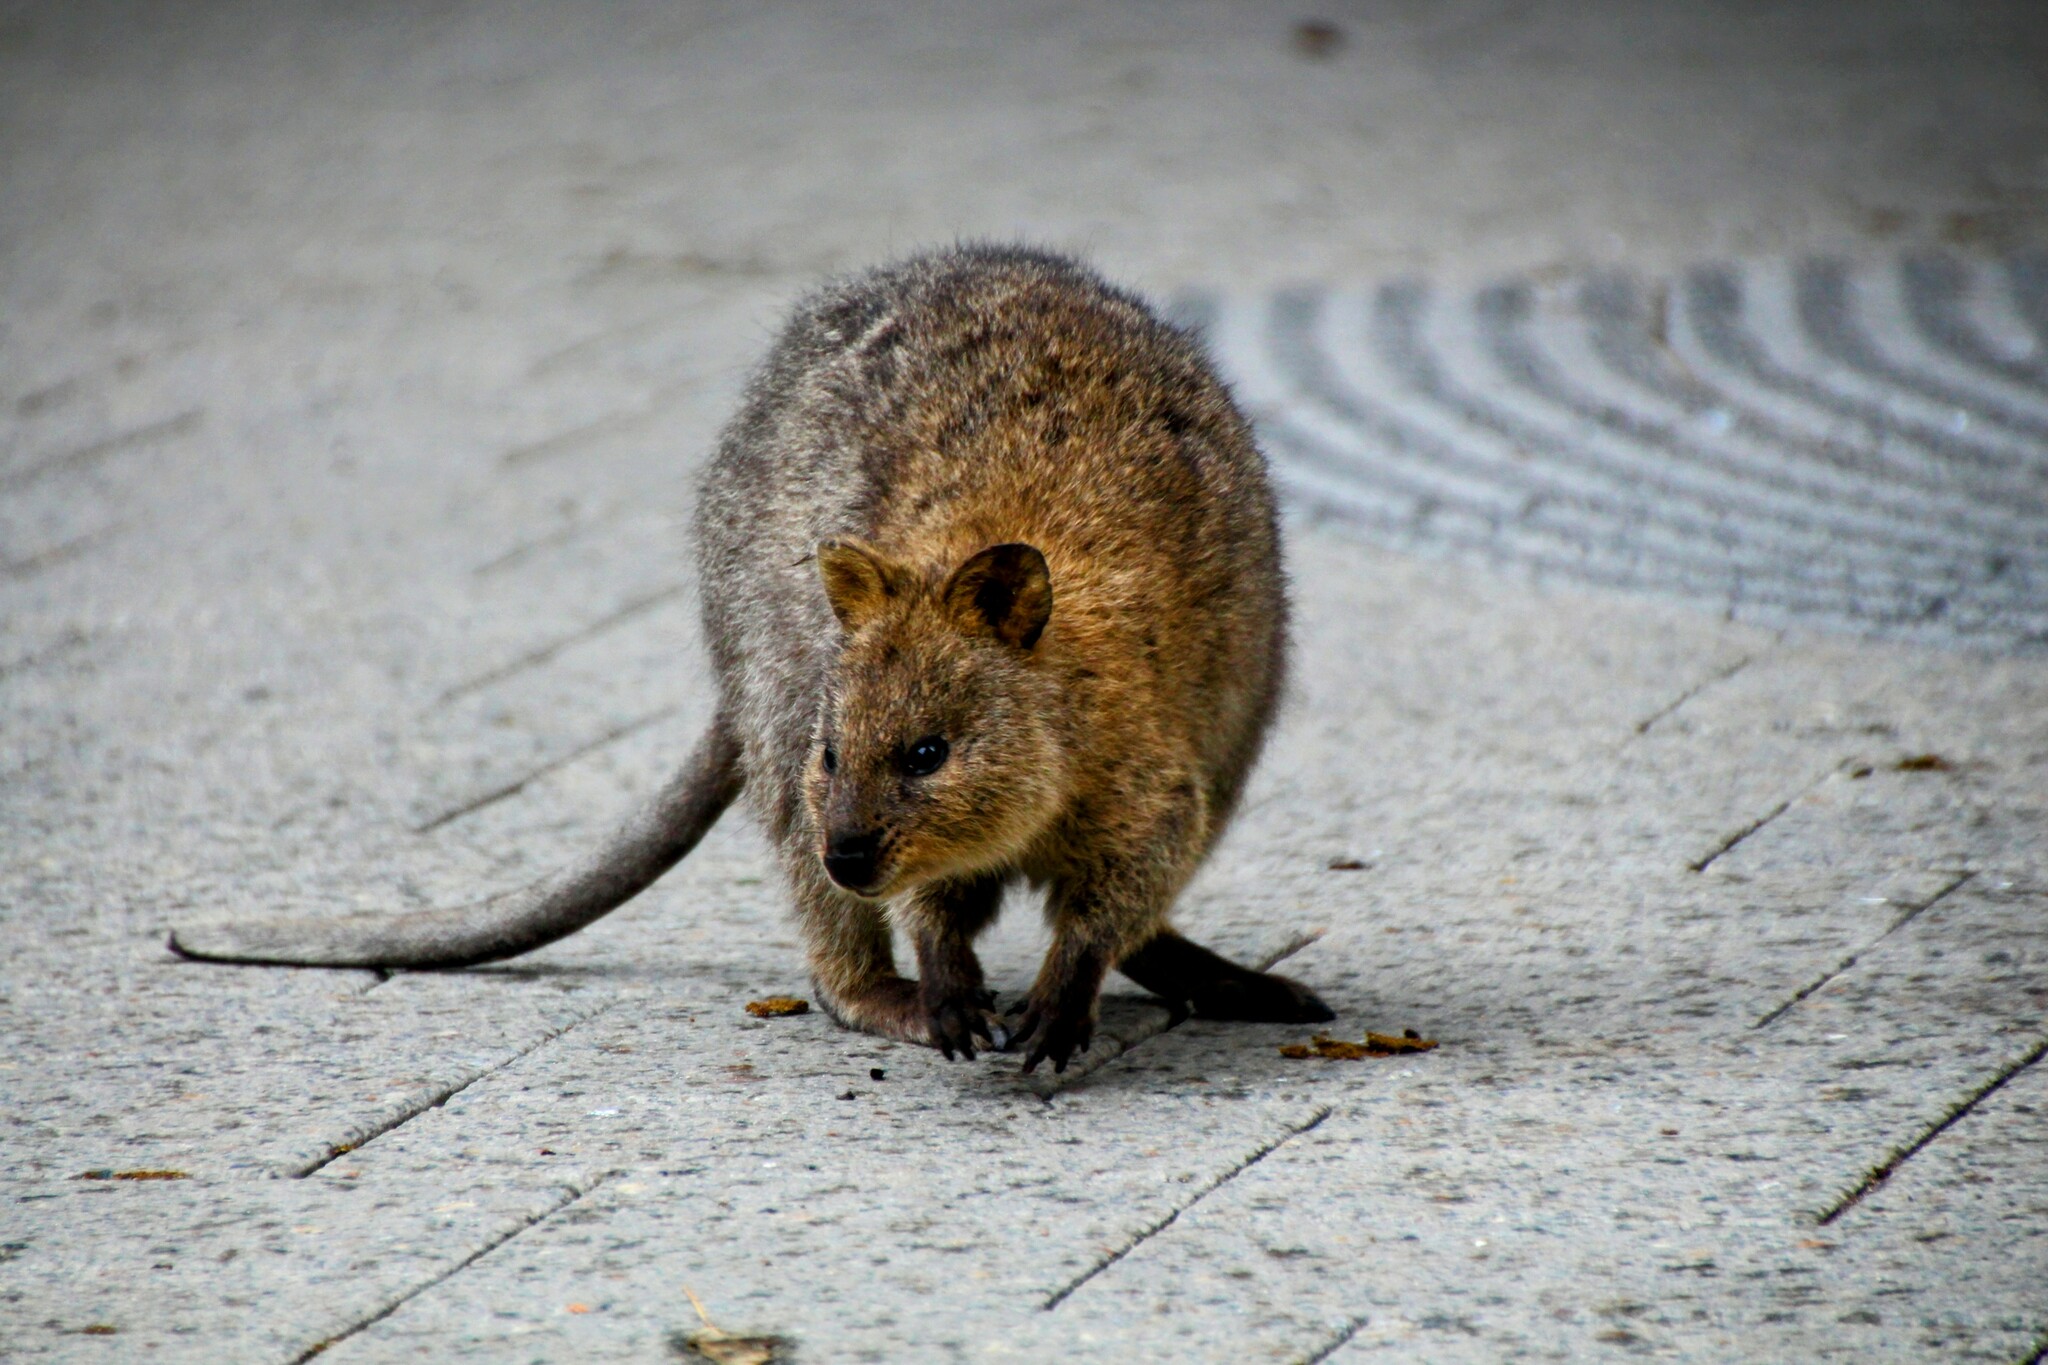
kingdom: Animalia
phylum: Chordata
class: Mammalia
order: Diprotodontia
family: Macropodidae
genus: Setonix
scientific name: Setonix brachyurus
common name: Quokka
